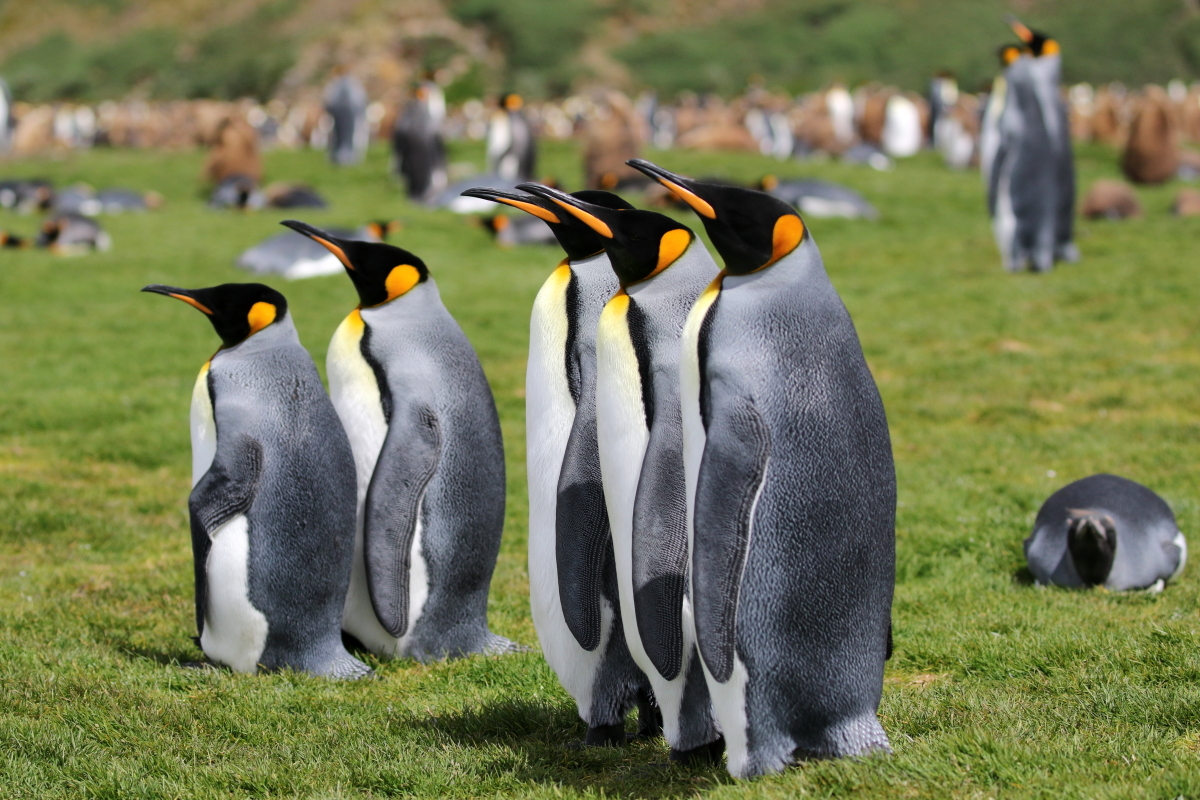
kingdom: Animalia
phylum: Chordata
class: Aves
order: Sphenisciformes
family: Spheniscidae
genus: Aptenodytes
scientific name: Aptenodytes patagonicus
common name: King penguin
